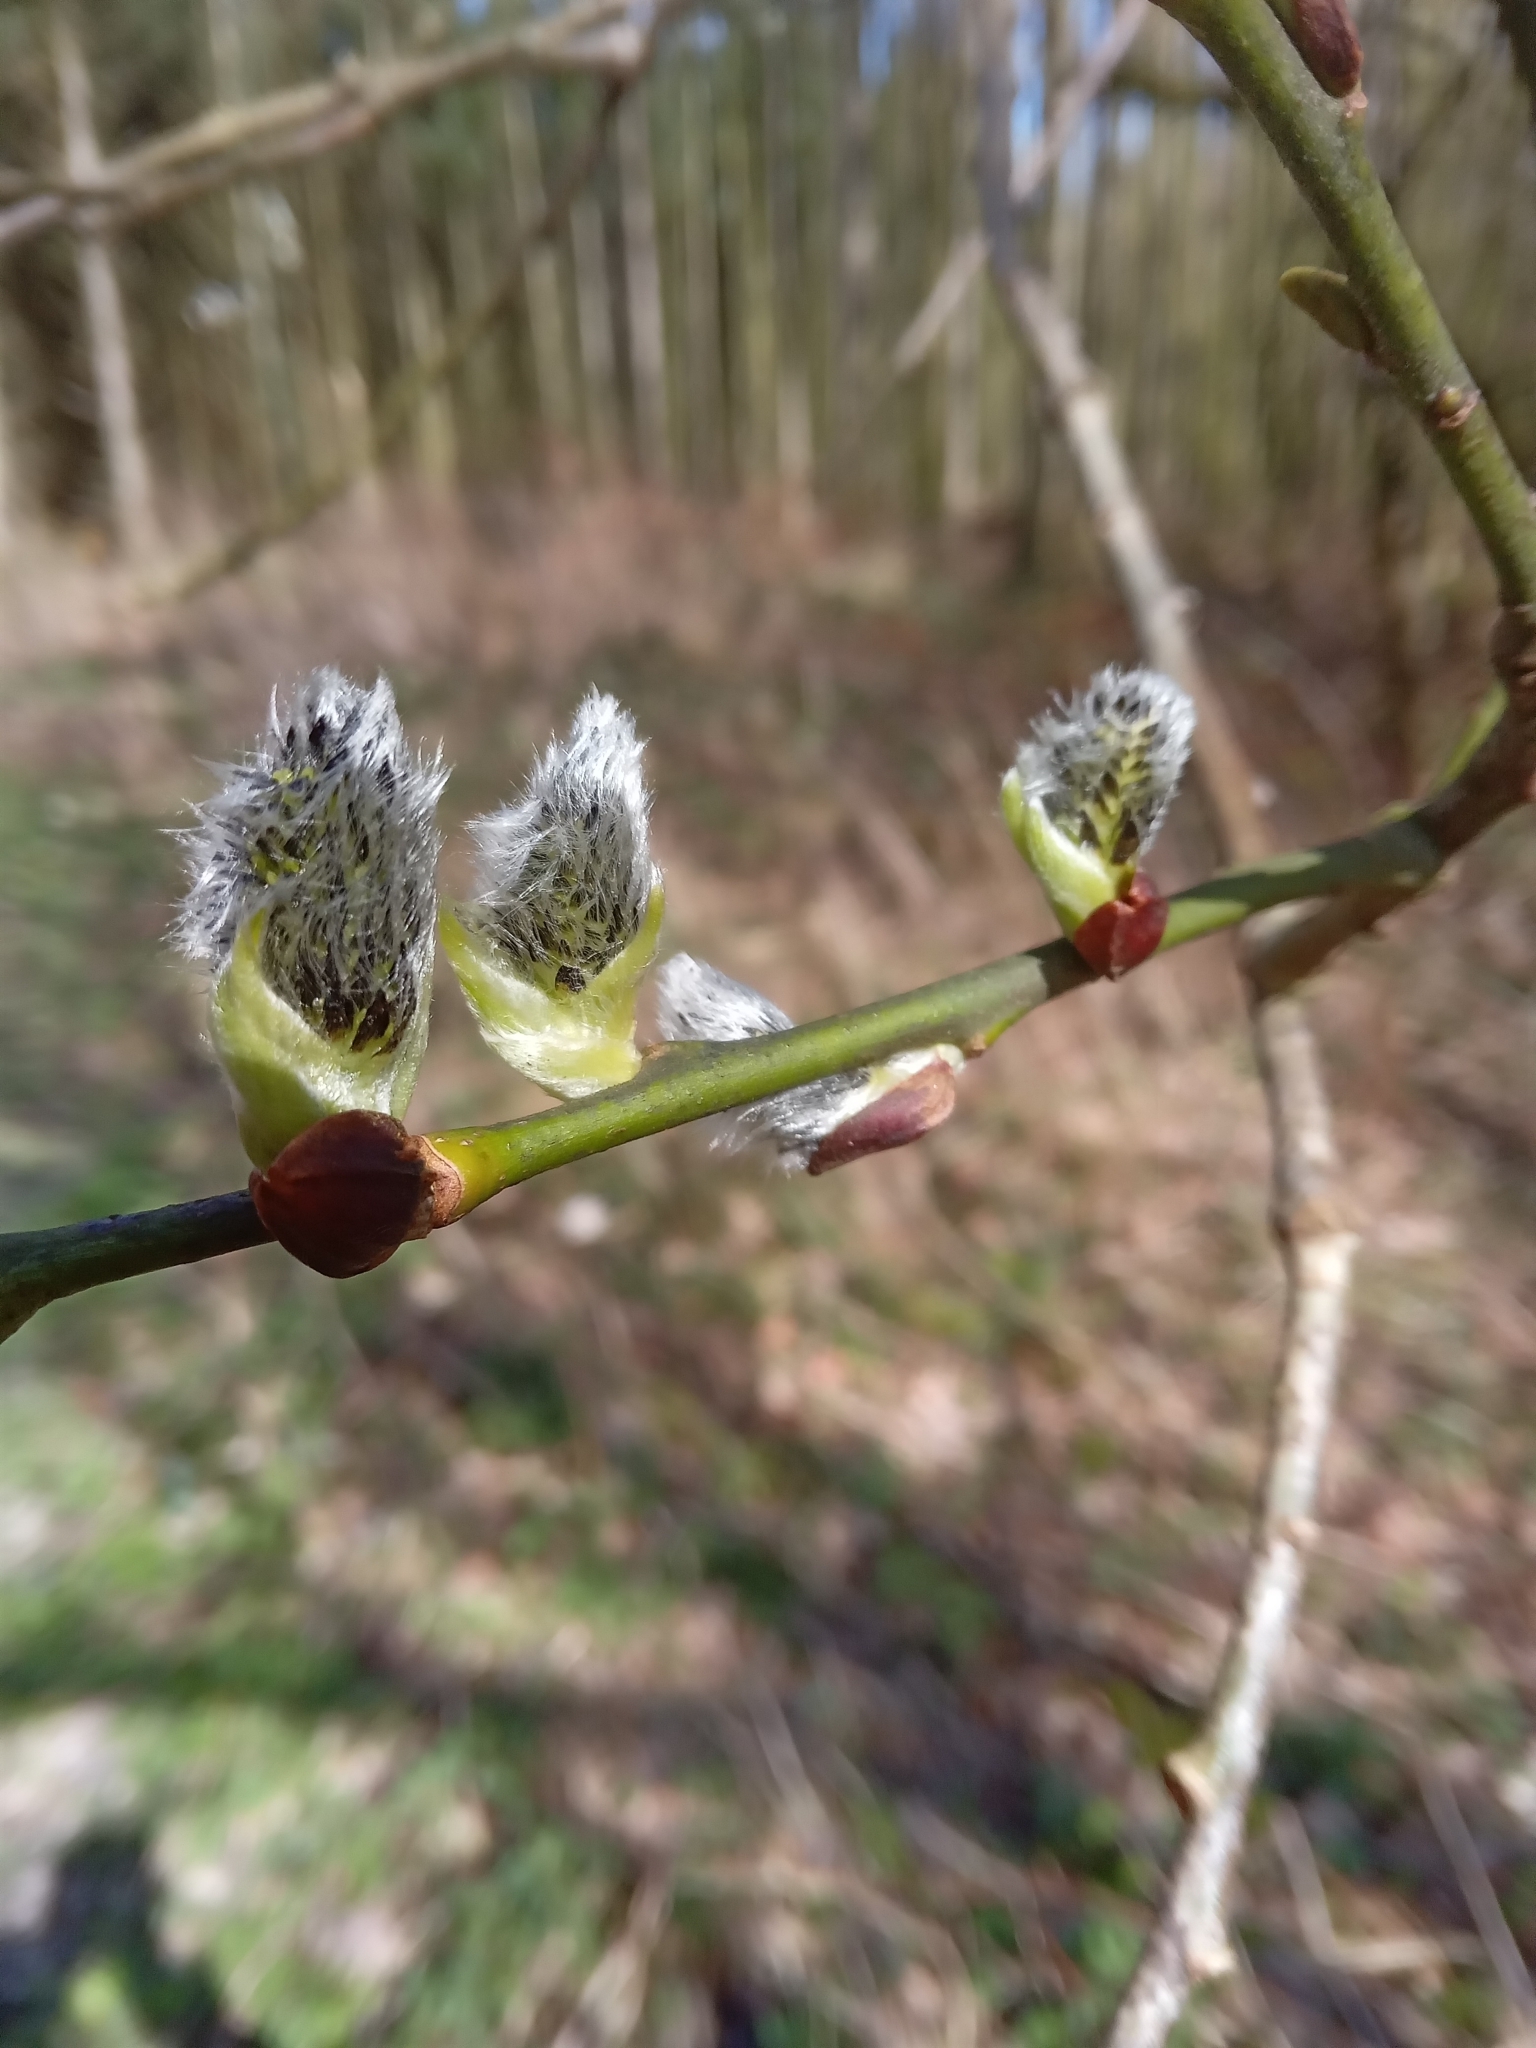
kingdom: Plantae
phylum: Tracheophyta
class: Magnoliopsida
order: Malpighiales
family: Salicaceae
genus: Salix
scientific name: Salix caprea
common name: Goat willow
